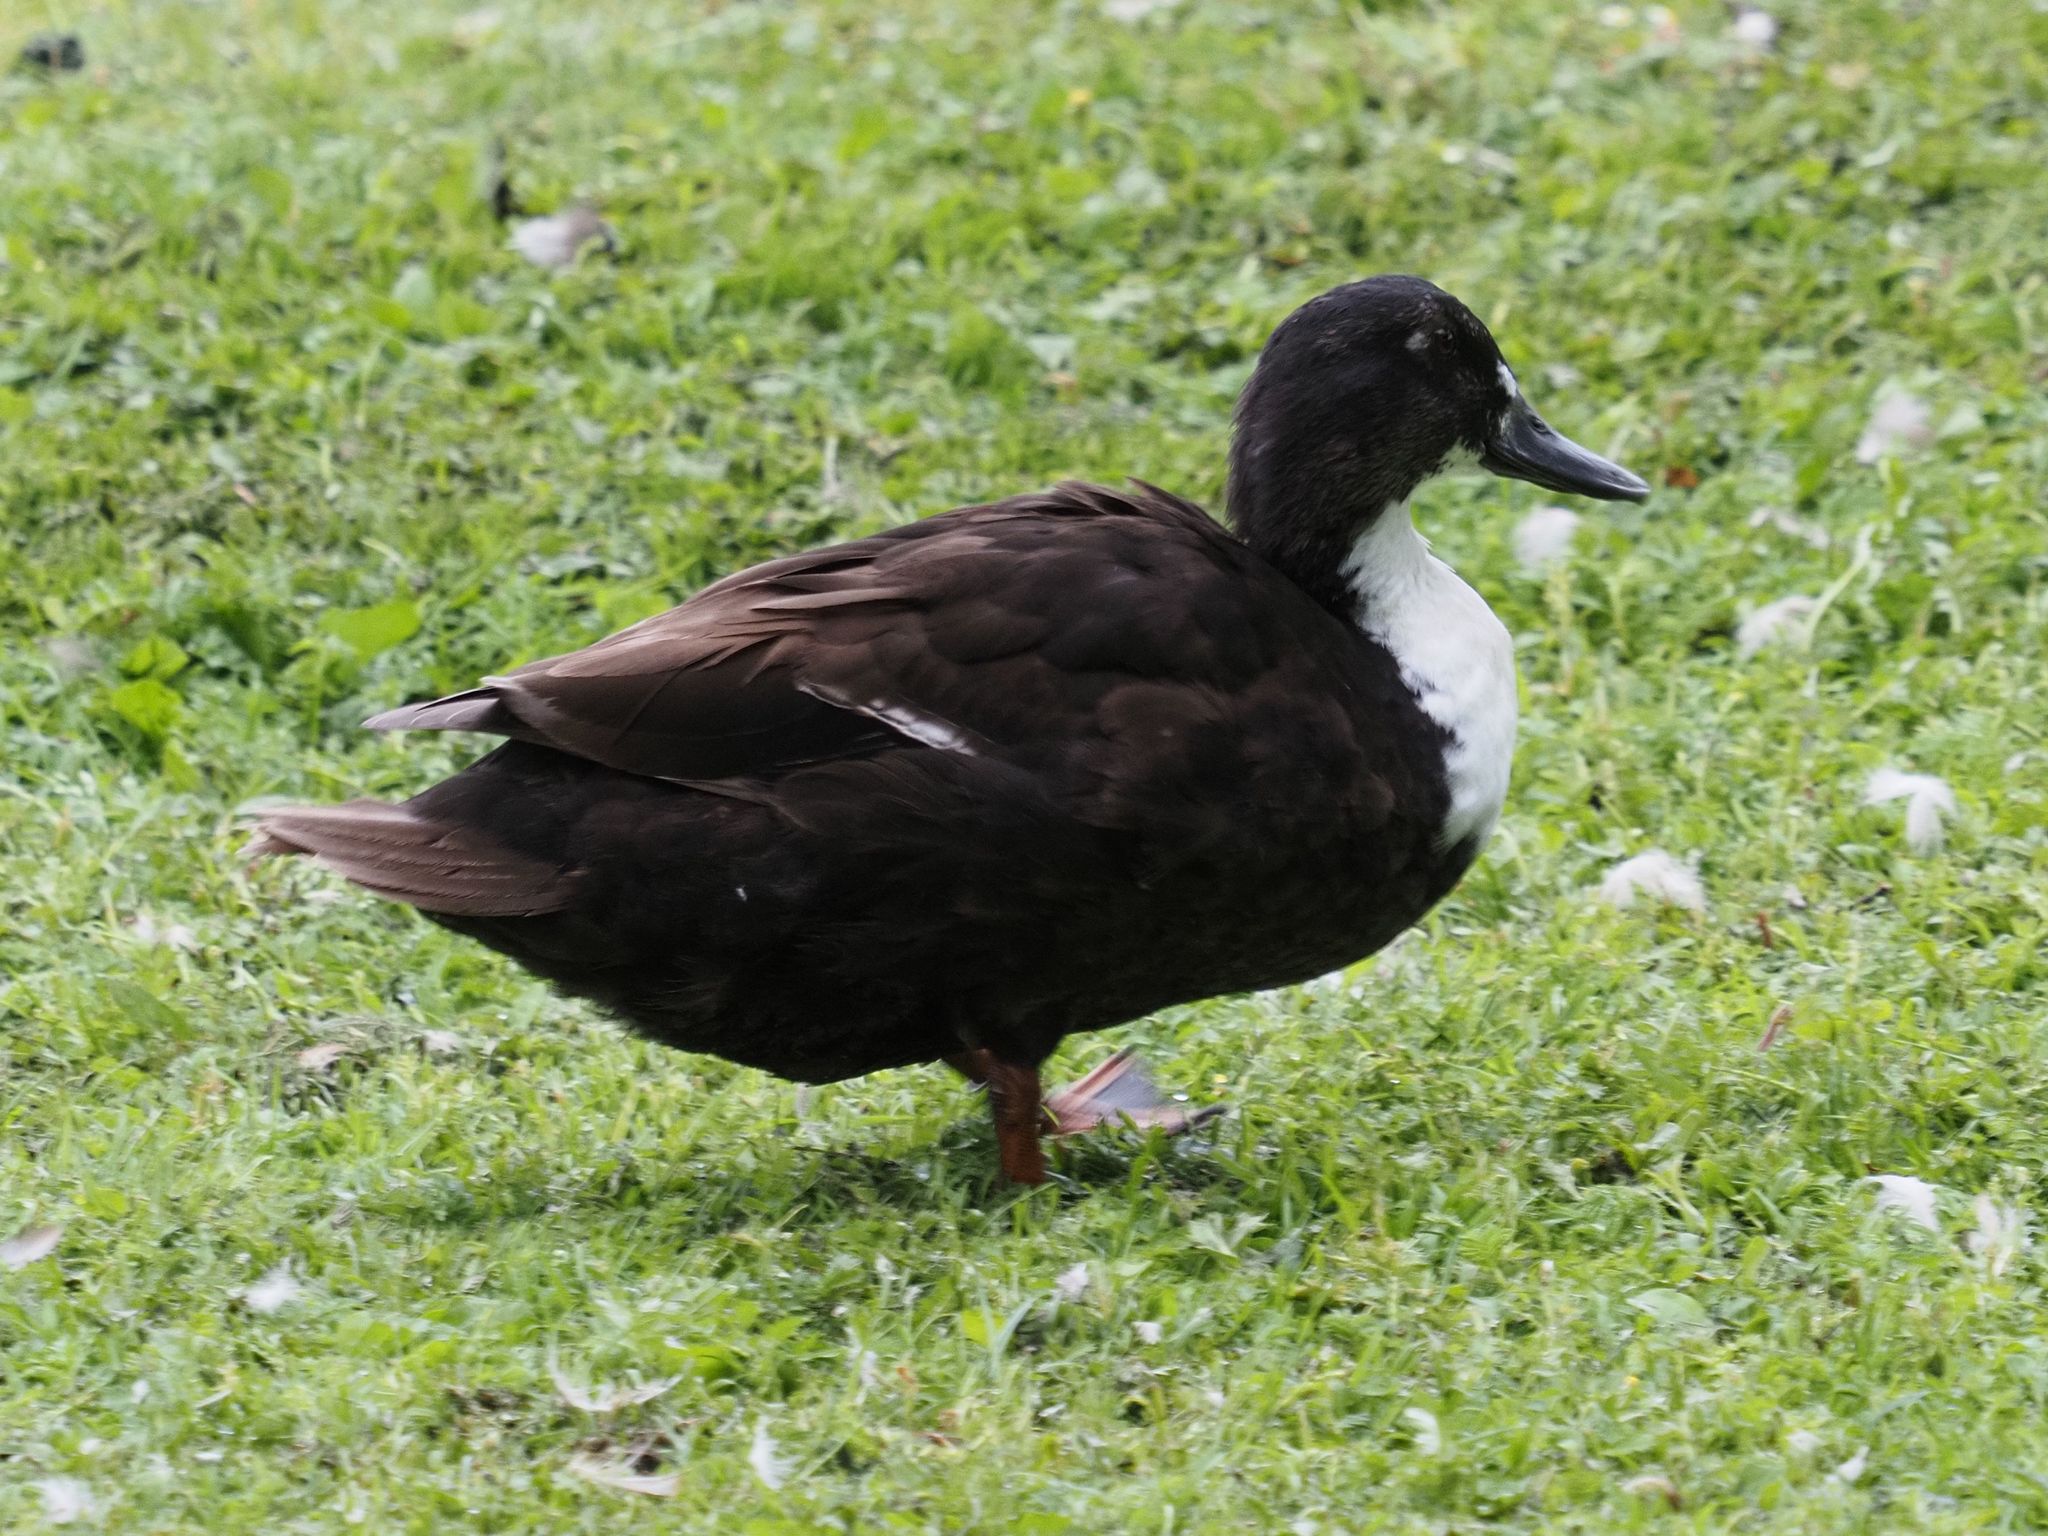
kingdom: Animalia
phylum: Chordata
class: Aves
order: Anseriformes
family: Anatidae
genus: Anas
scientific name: Anas platyrhynchos
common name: Mallard
